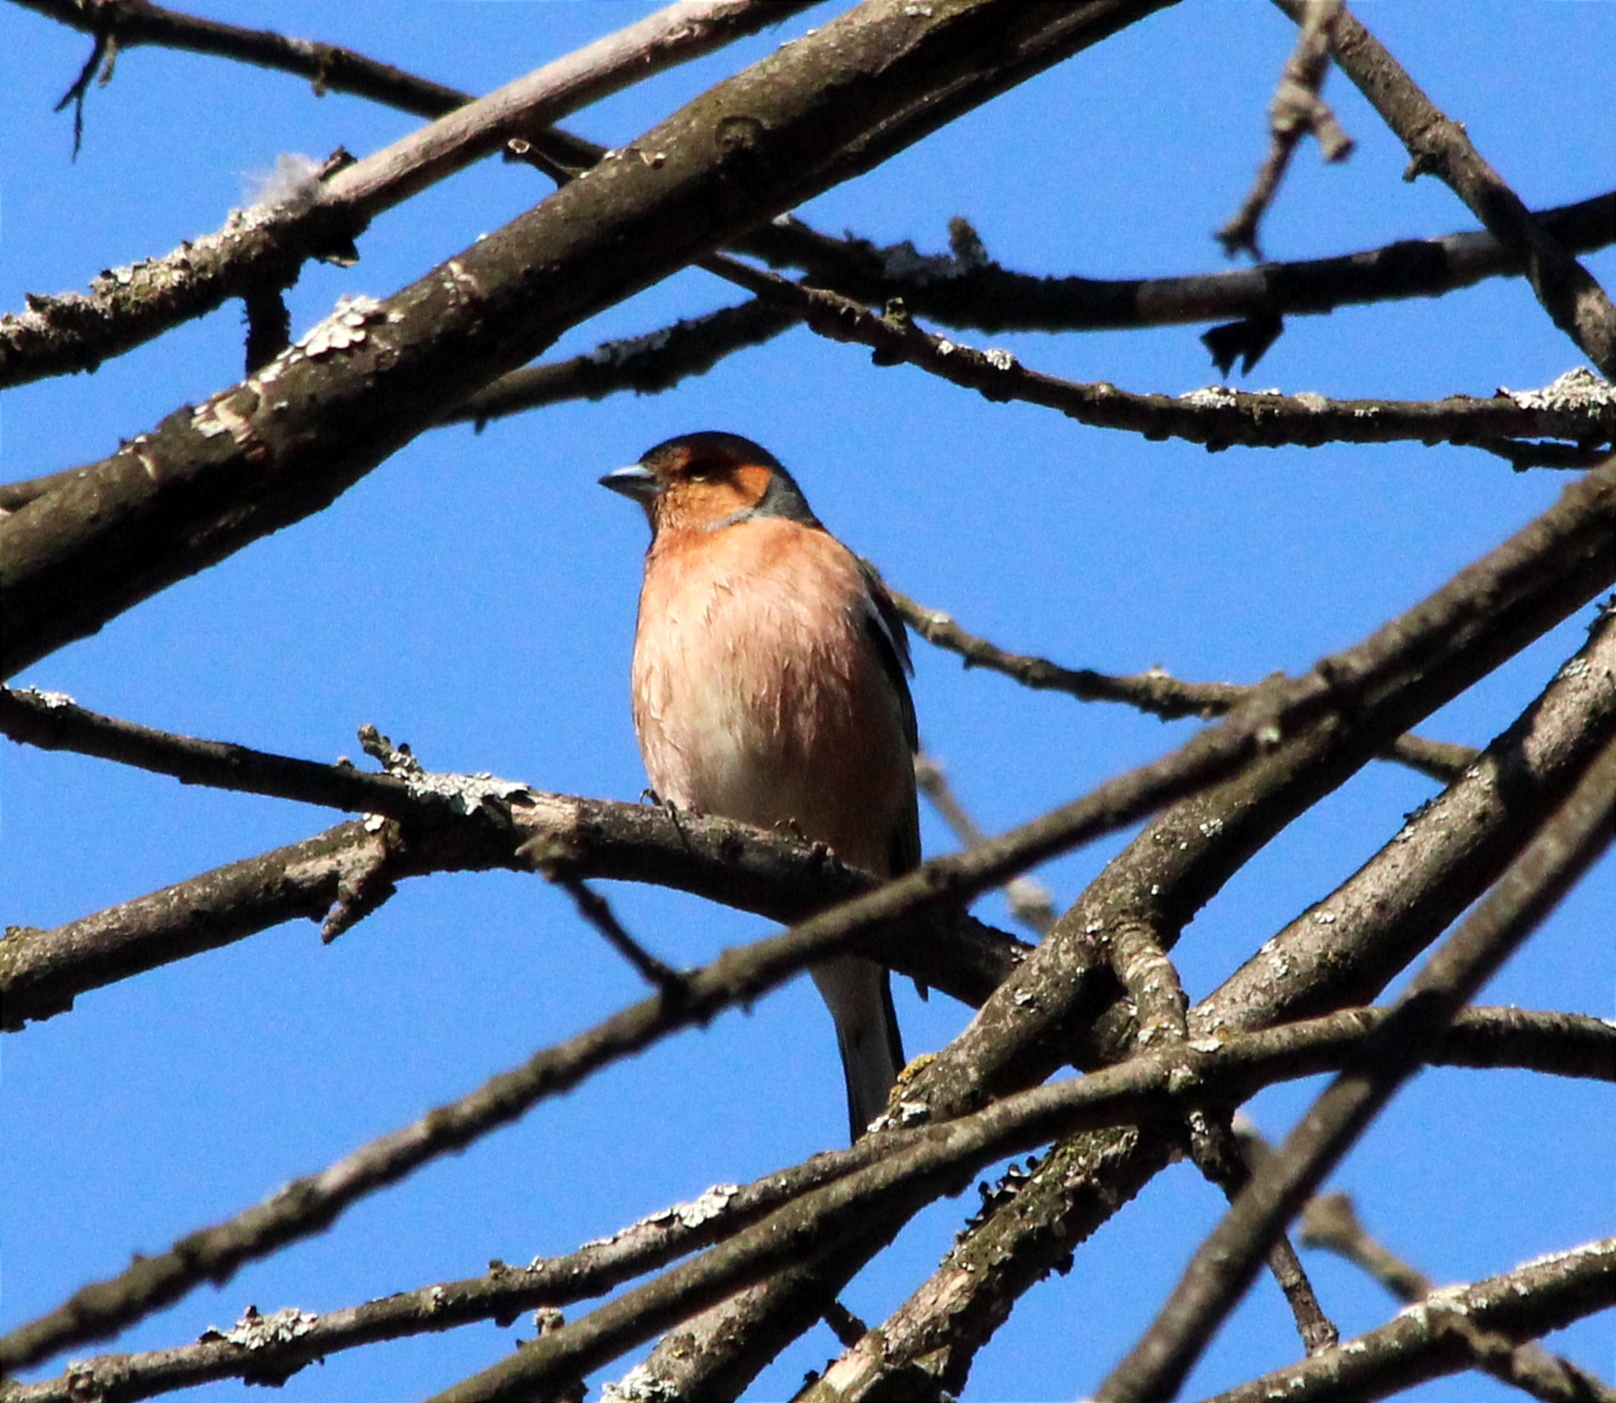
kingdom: Animalia
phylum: Chordata
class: Aves
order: Passeriformes
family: Fringillidae
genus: Fringilla
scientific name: Fringilla coelebs
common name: Common chaffinch
